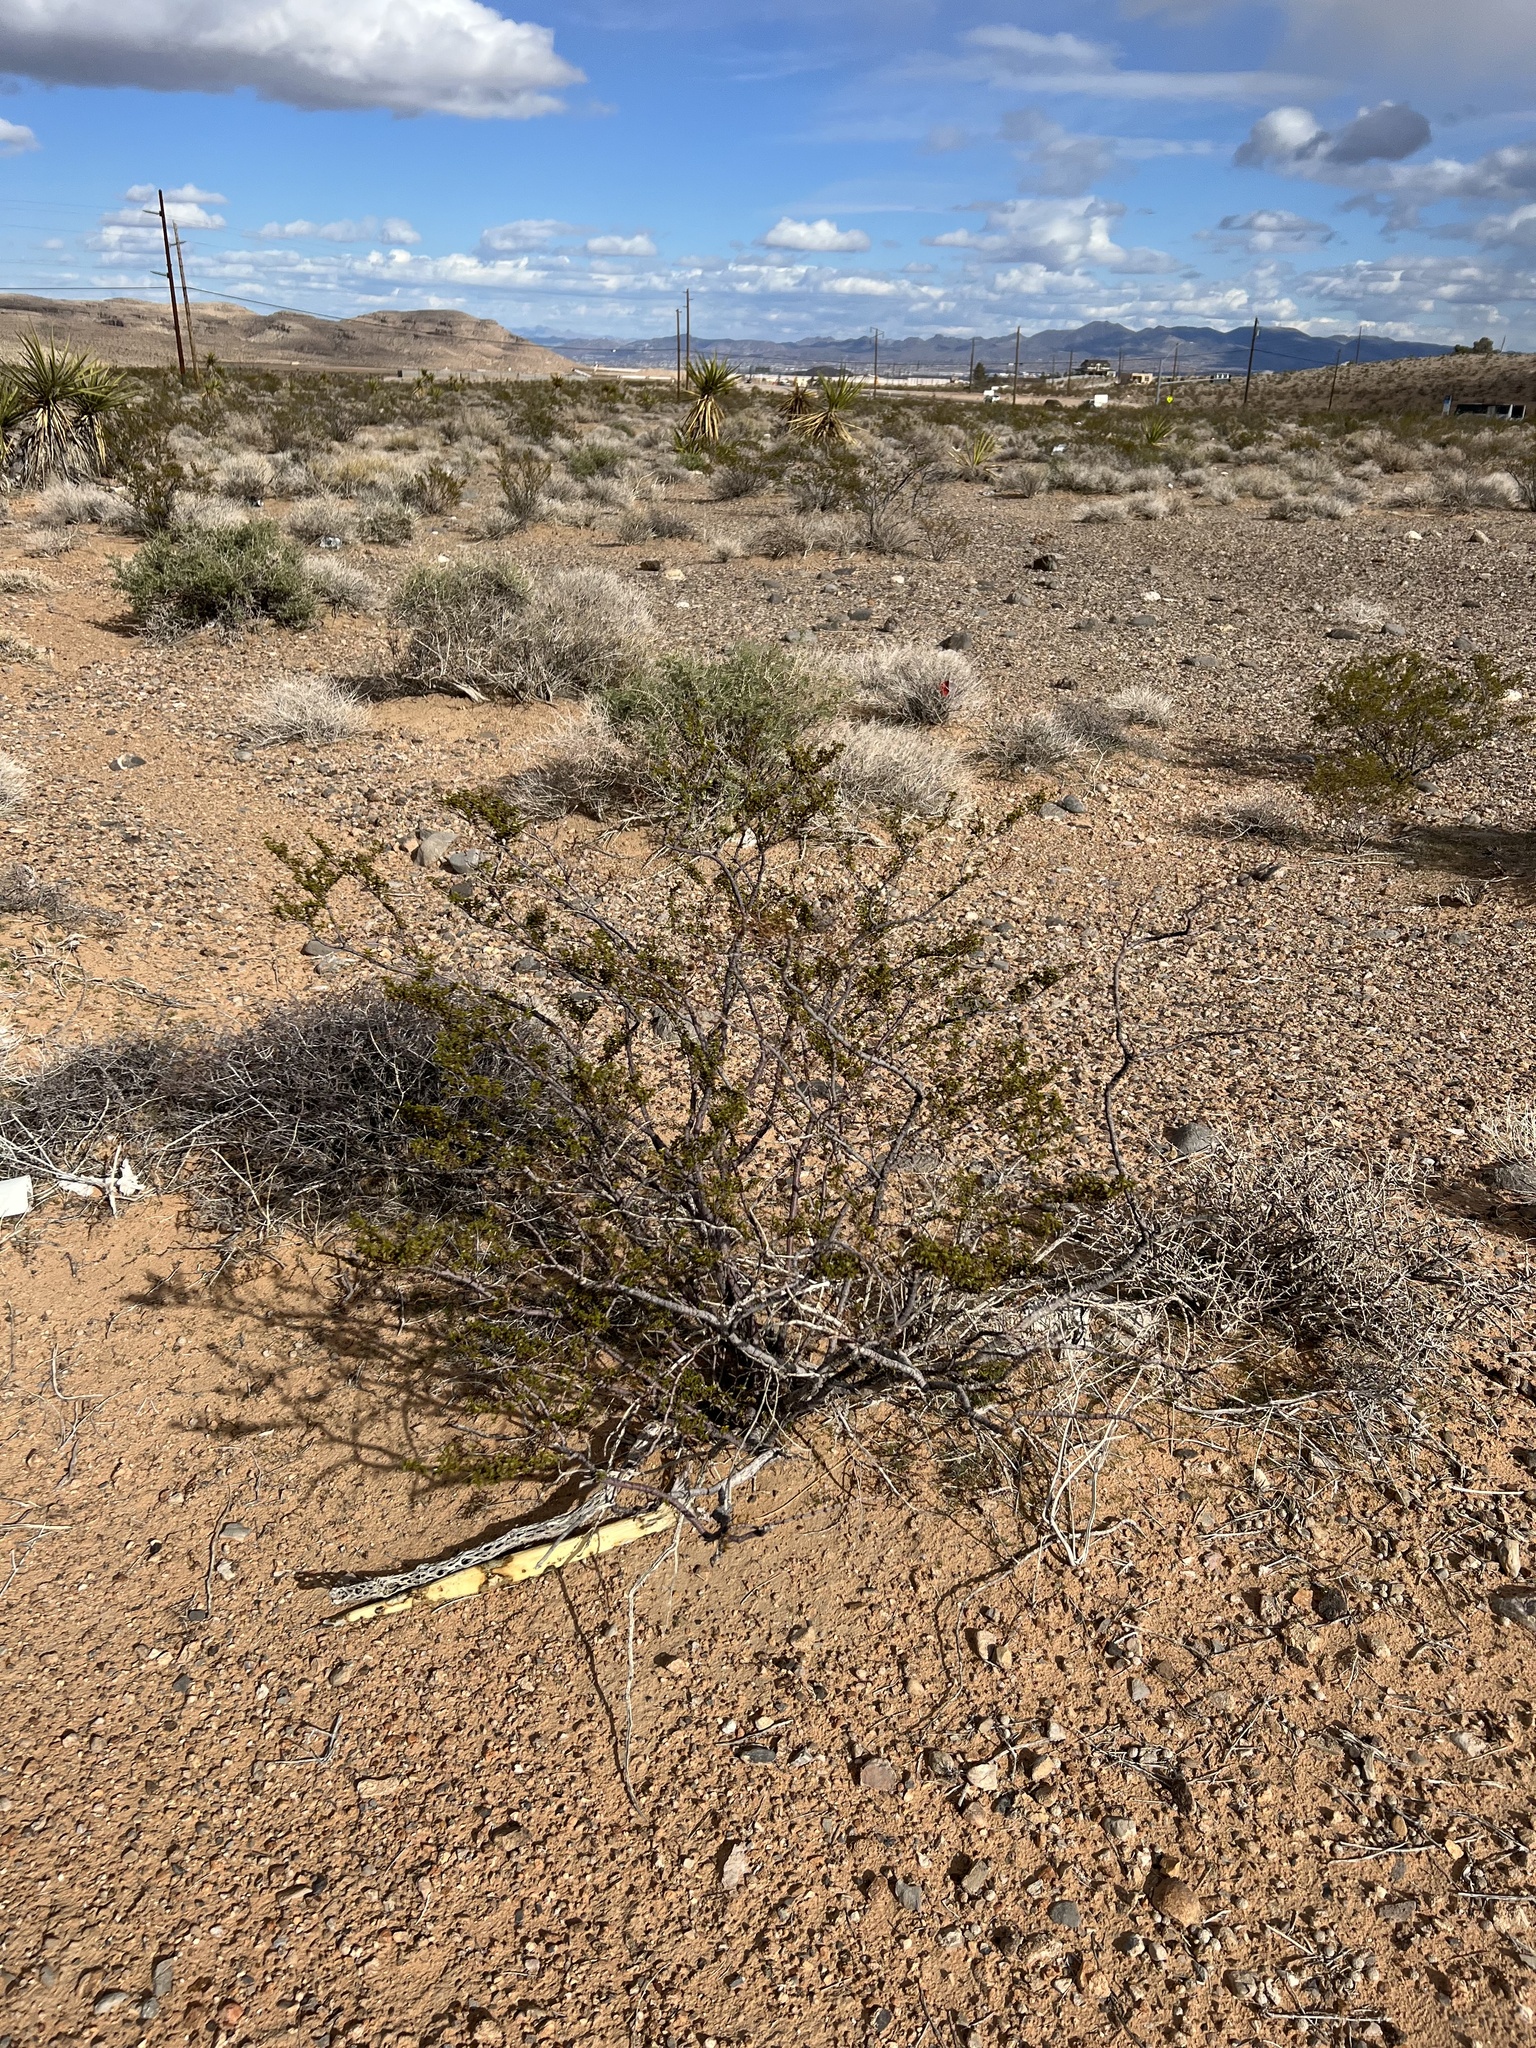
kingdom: Plantae
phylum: Tracheophyta
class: Magnoliopsida
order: Zygophyllales
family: Zygophyllaceae
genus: Larrea
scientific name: Larrea tridentata
